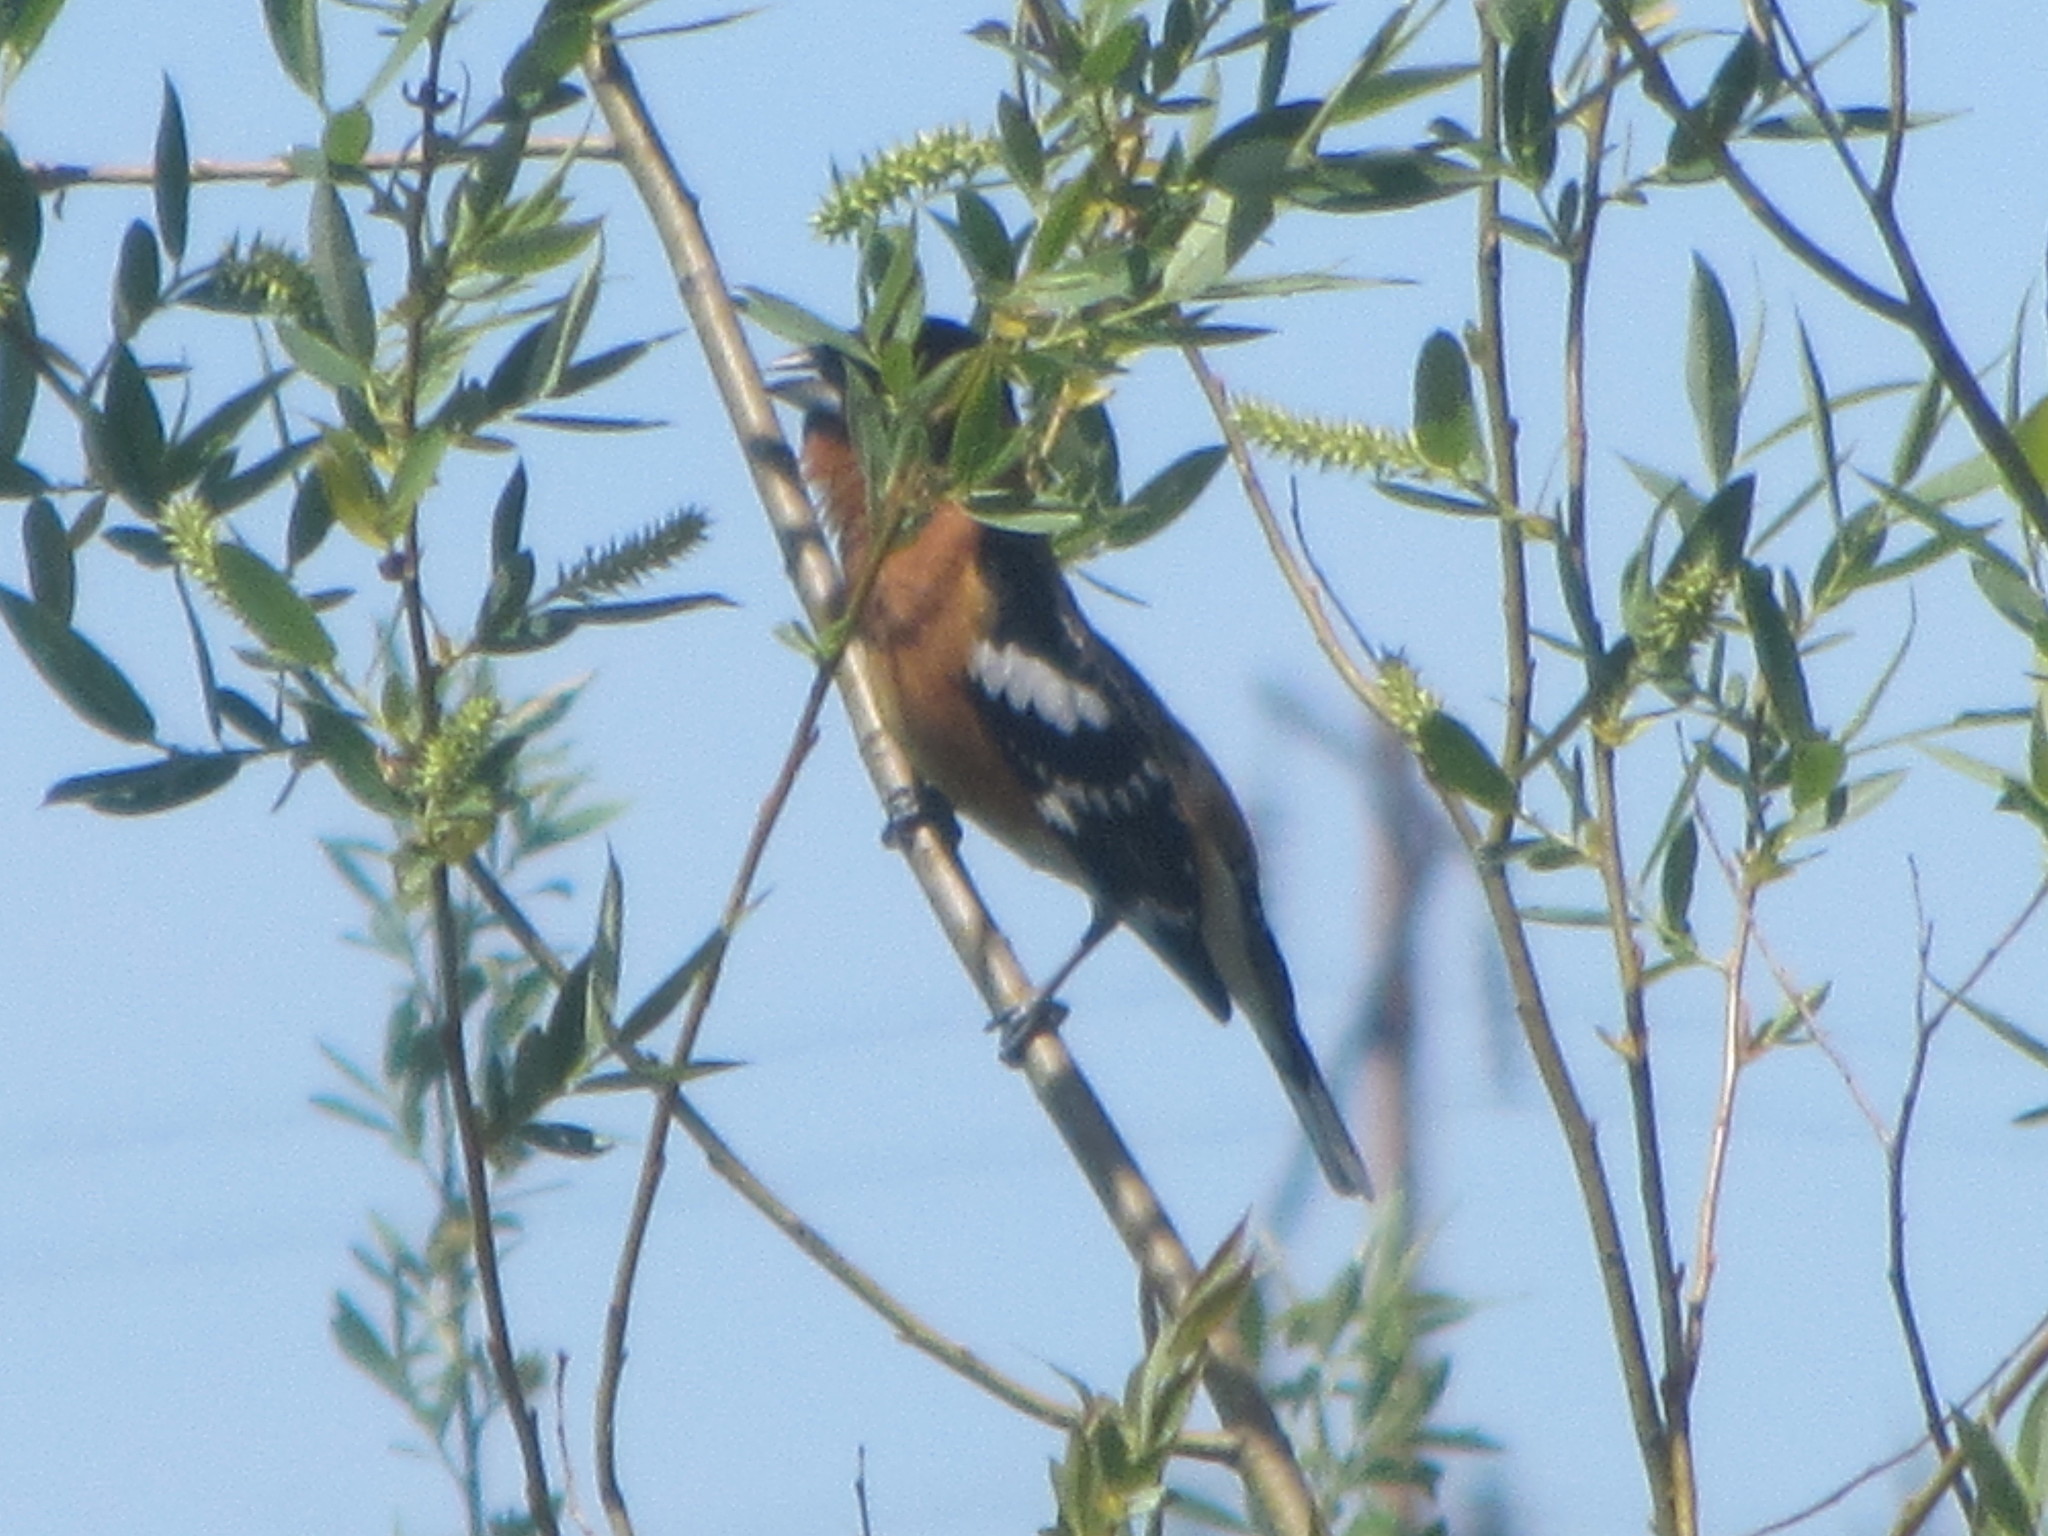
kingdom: Animalia
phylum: Chordata
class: Aves
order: Passeriformes
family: Cardinalidae
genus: Pheucticus
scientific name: Pheucticus melanocephalus
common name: Black-headed grosbeak
